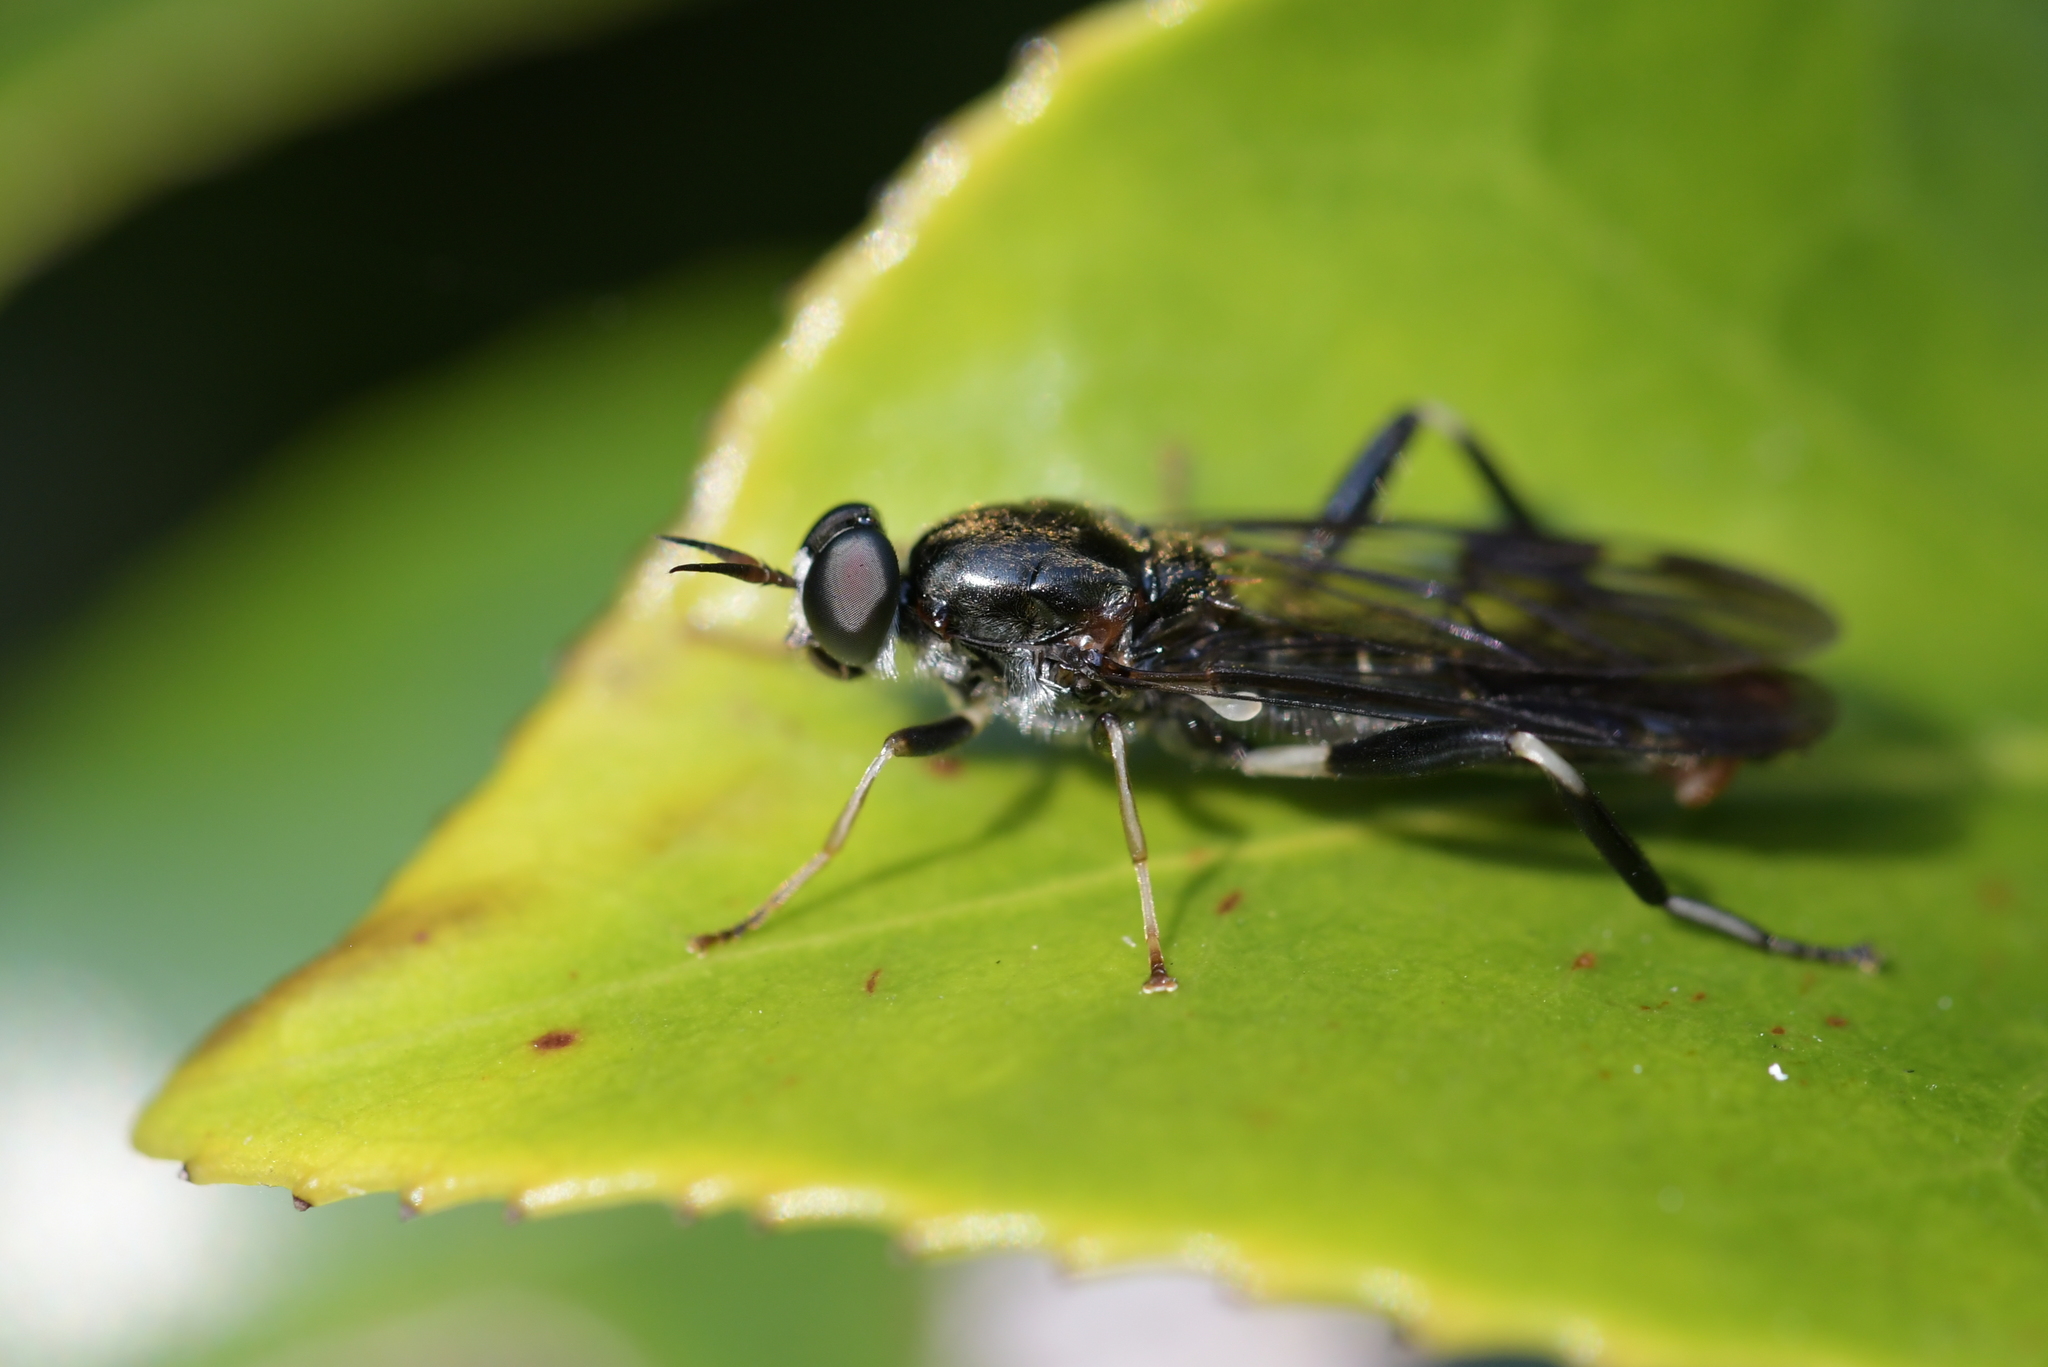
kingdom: Animalia
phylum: Arthropoda
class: Insecta
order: Diptera
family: Stratiomyidae
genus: Exaireta
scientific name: Exaireta spinigera
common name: Blue soldier fly
